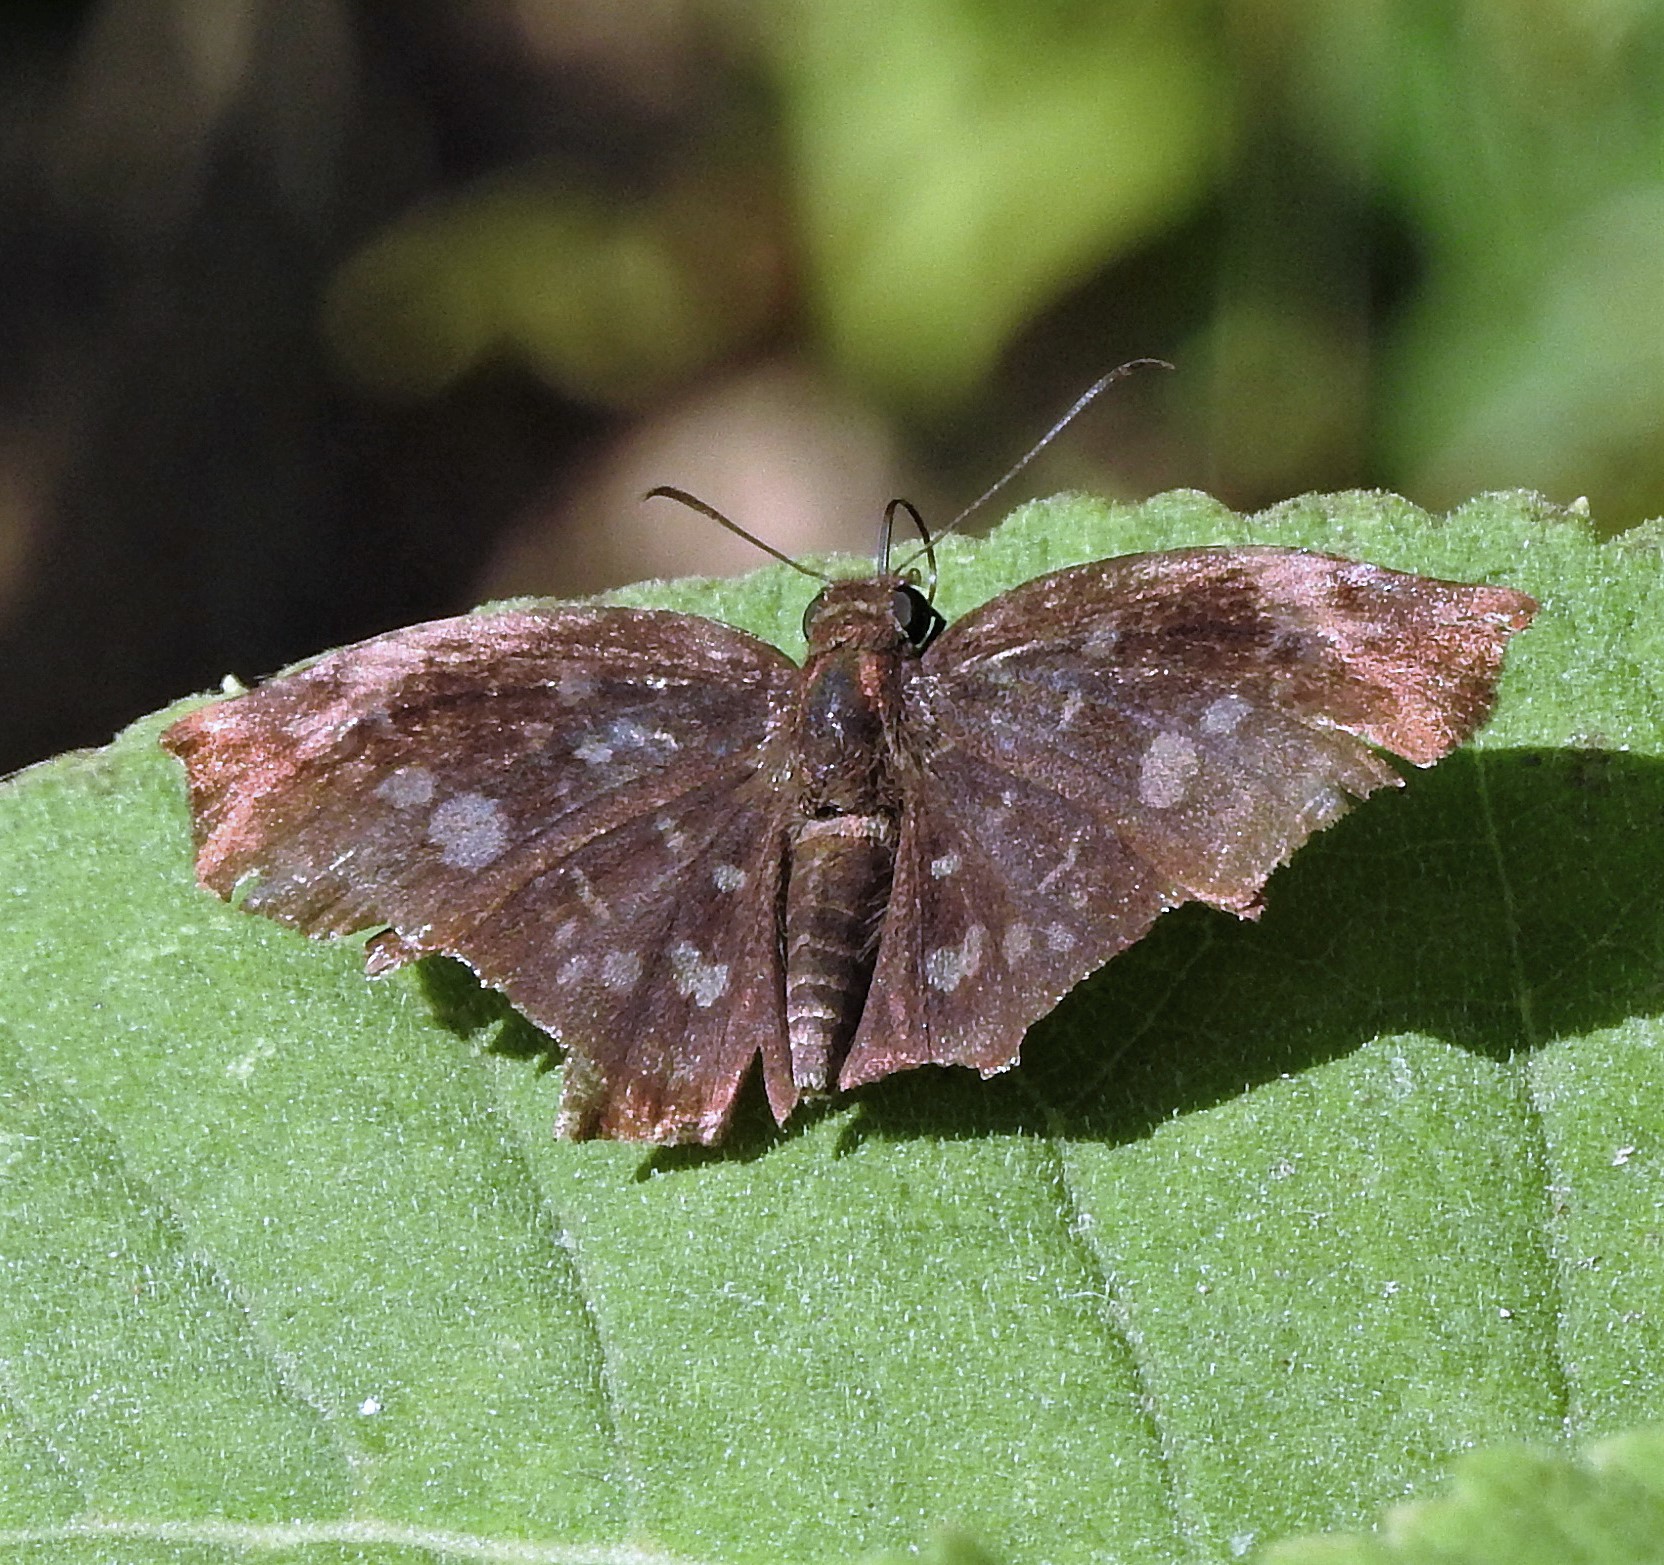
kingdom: Animalia
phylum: Arthropoda
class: Insecta
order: Lepidoptera
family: Hesperiidae
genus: Achlyodes
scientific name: Achlyodes thraso
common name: Sickle-winged skipper
